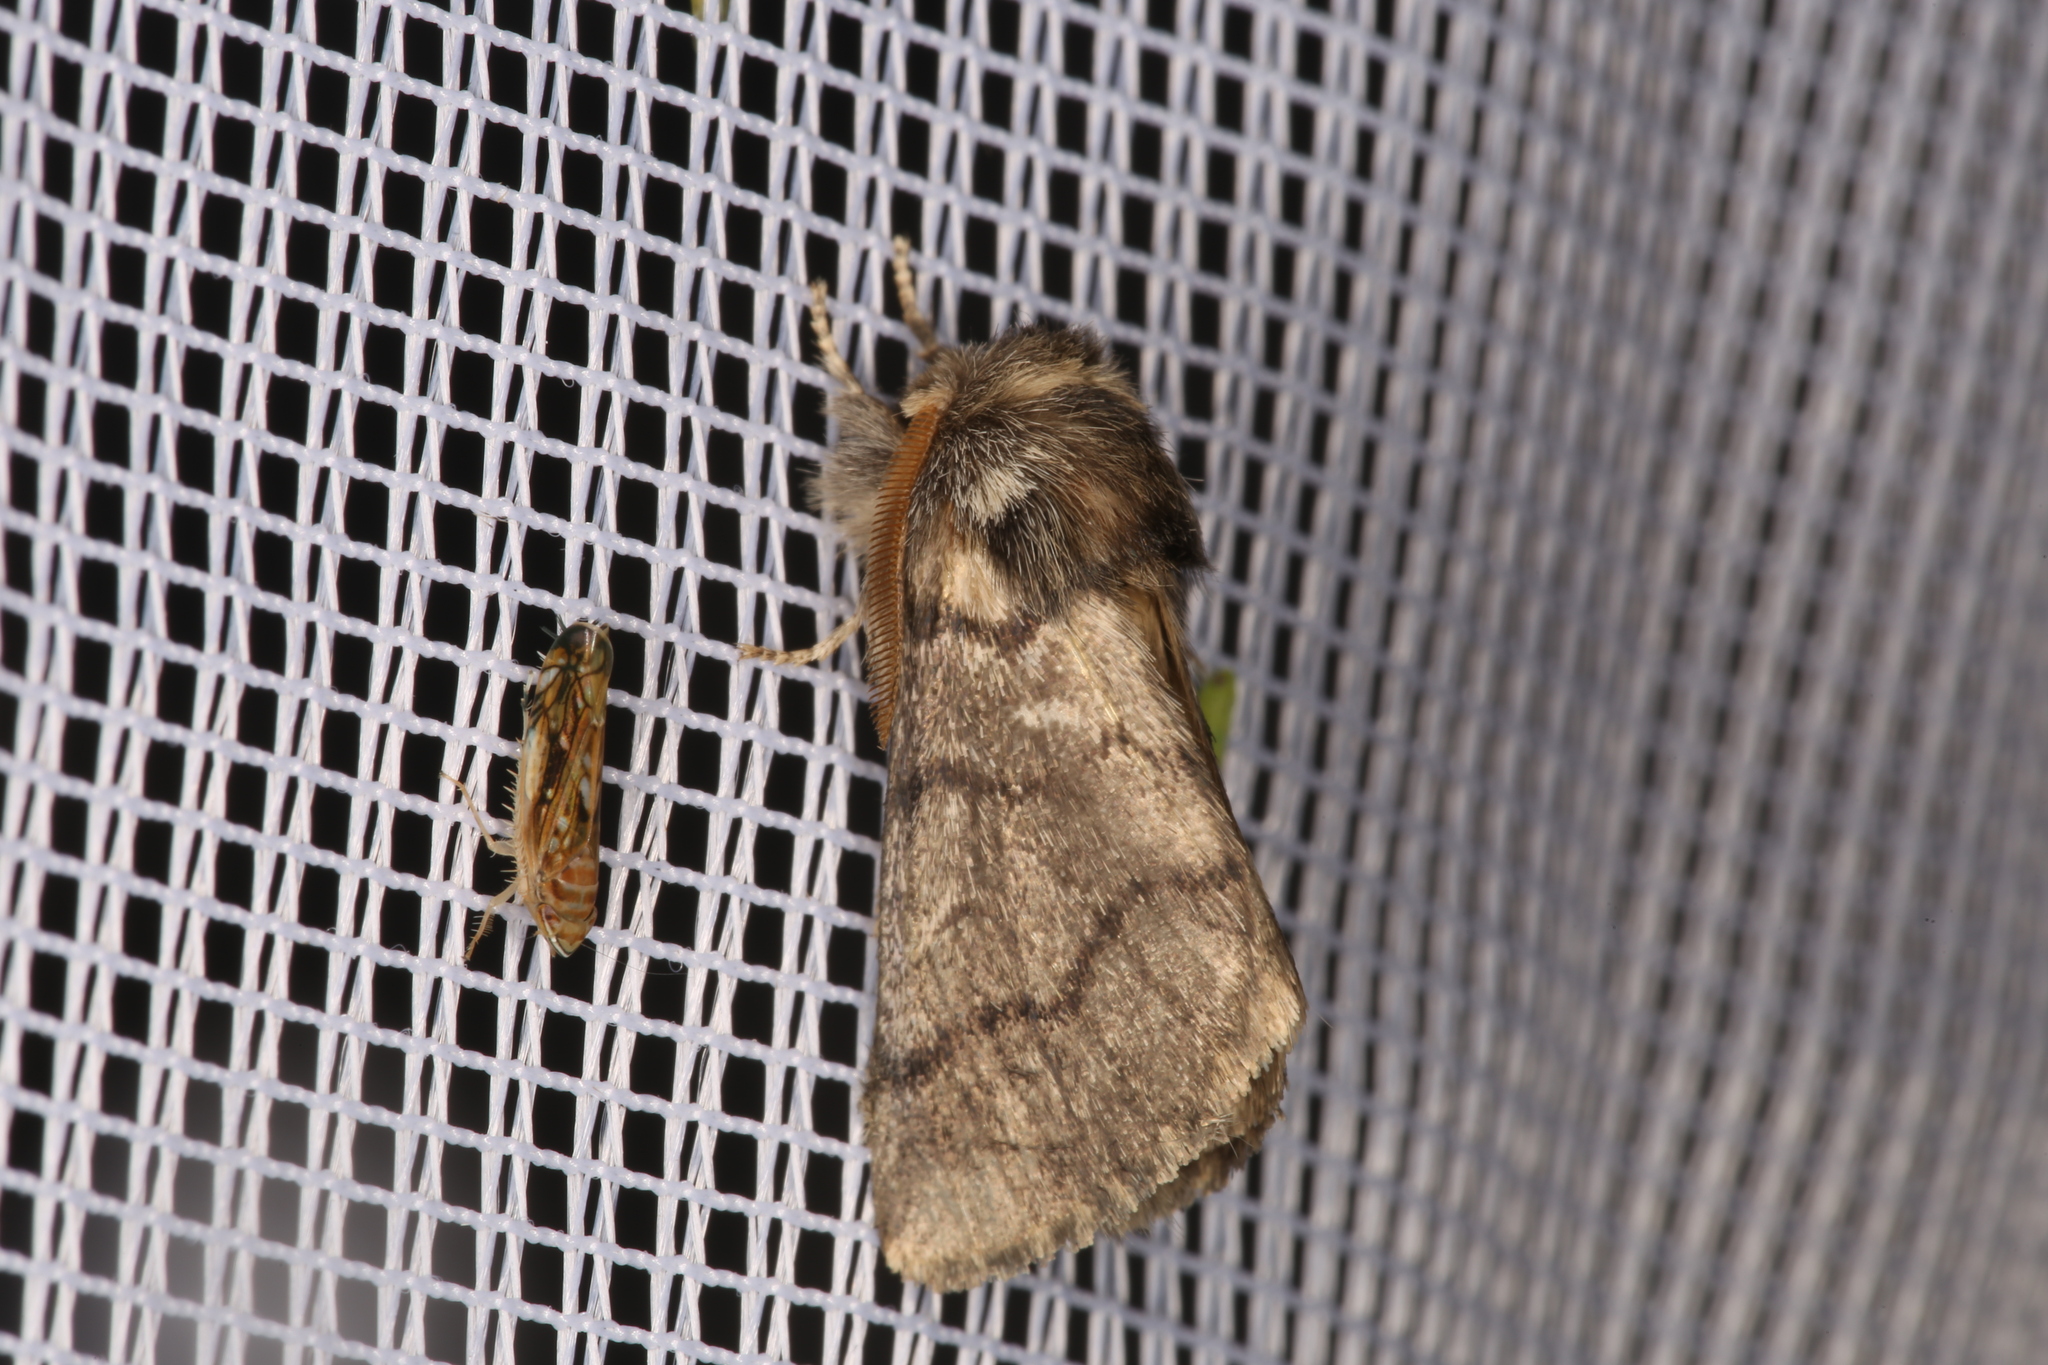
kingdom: Animalia
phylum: Arthropoda
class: Insecta
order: Lepidoptera
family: Notodontidae
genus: Thaumetopoea
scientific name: Thaumetopoea processionea
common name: Oak processionea
